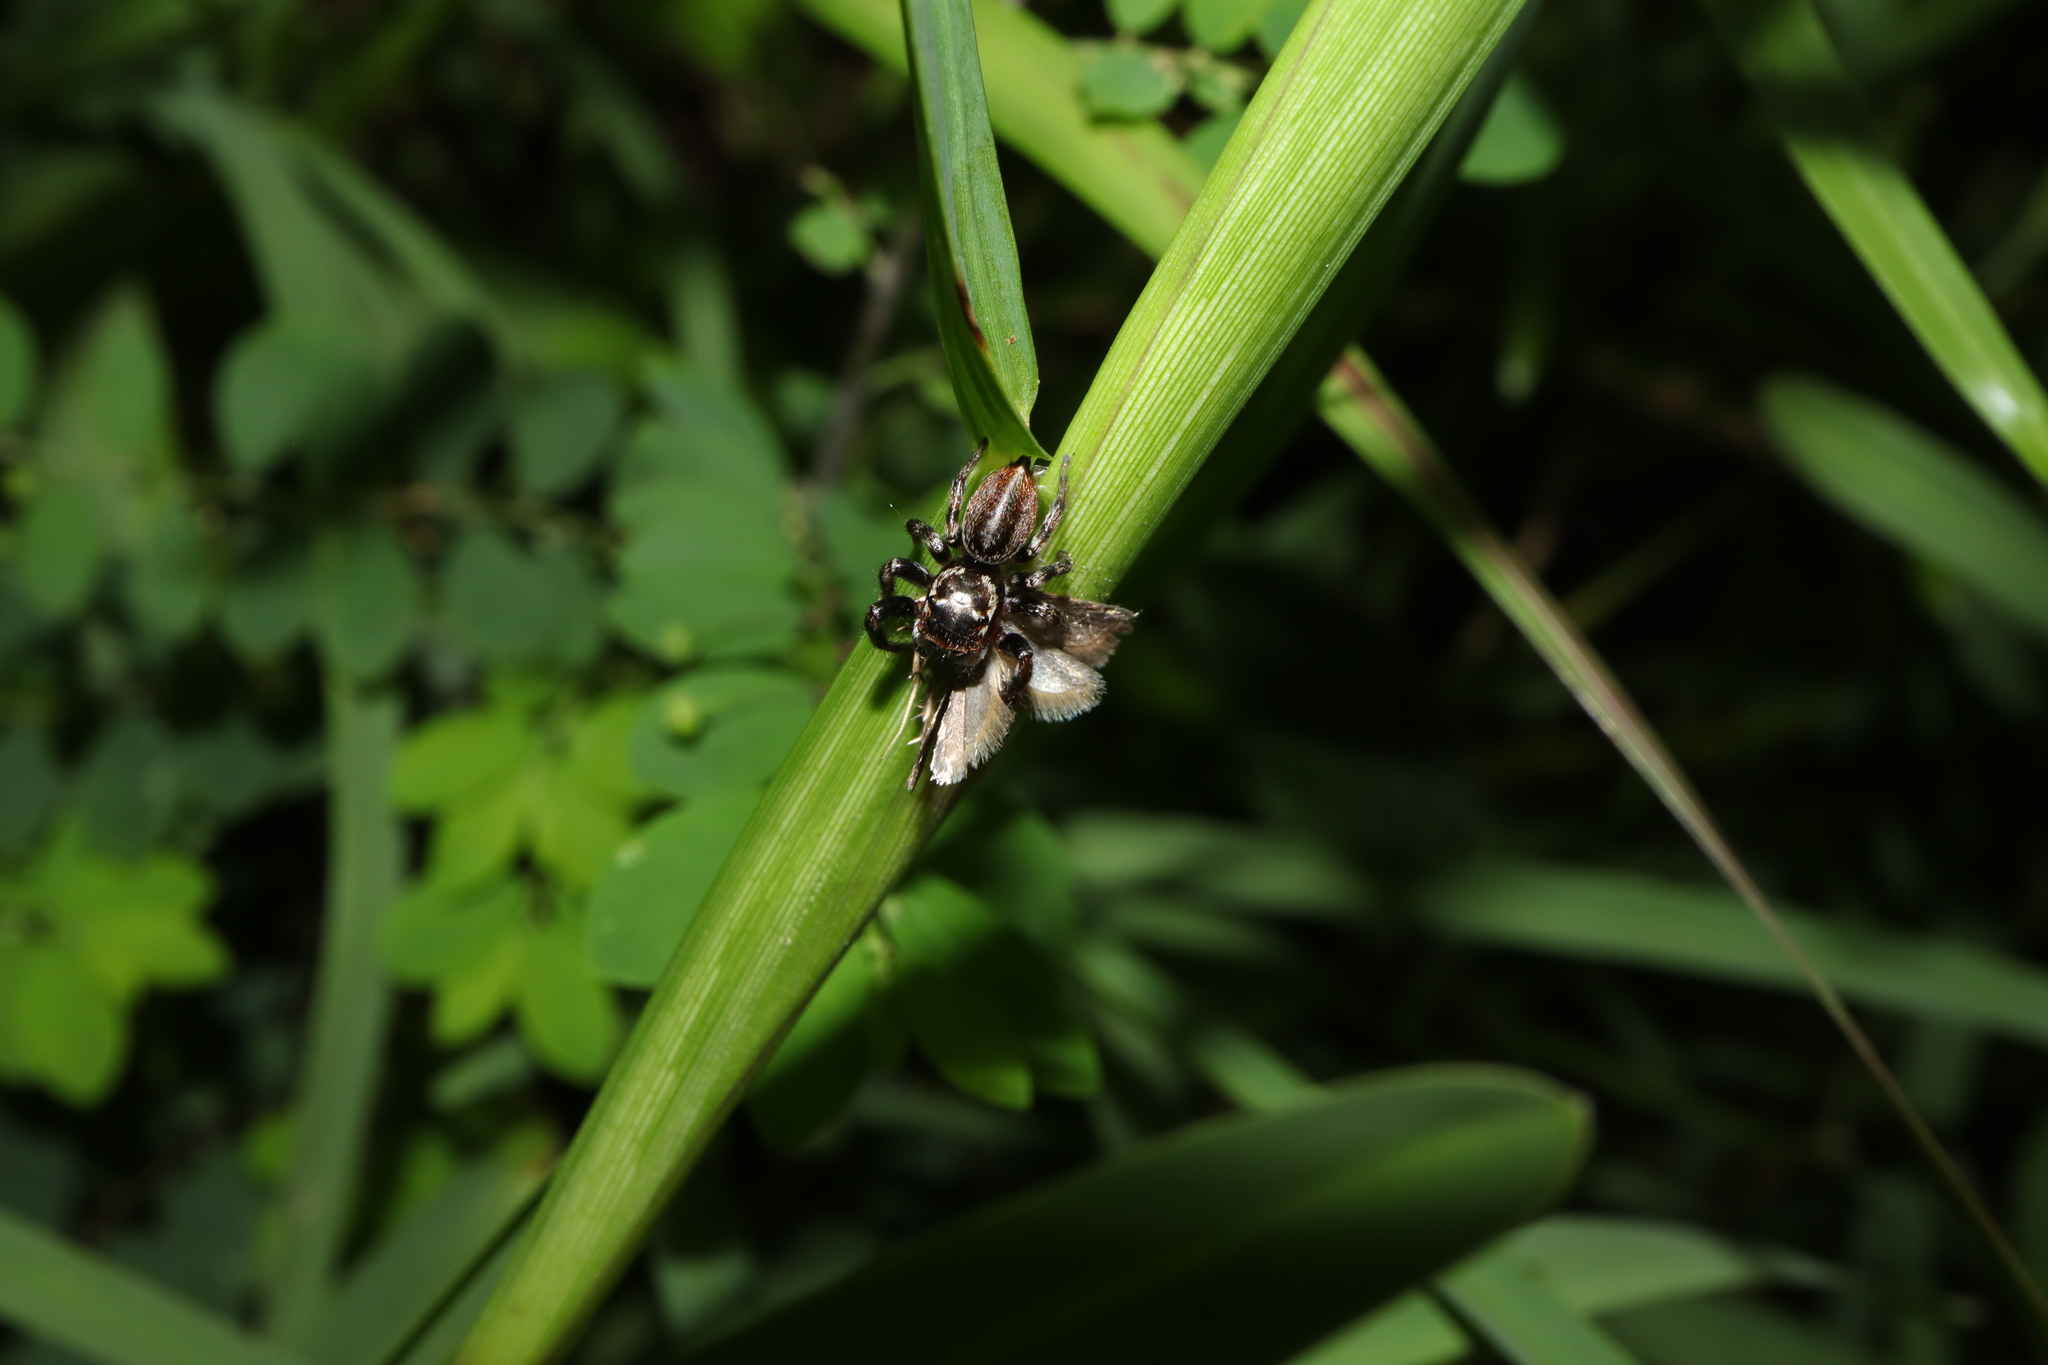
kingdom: Animalia
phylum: Arthropoda
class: Arachnida
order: Araneae
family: Salticidae
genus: Maratus
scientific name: Maratus scutulatus
